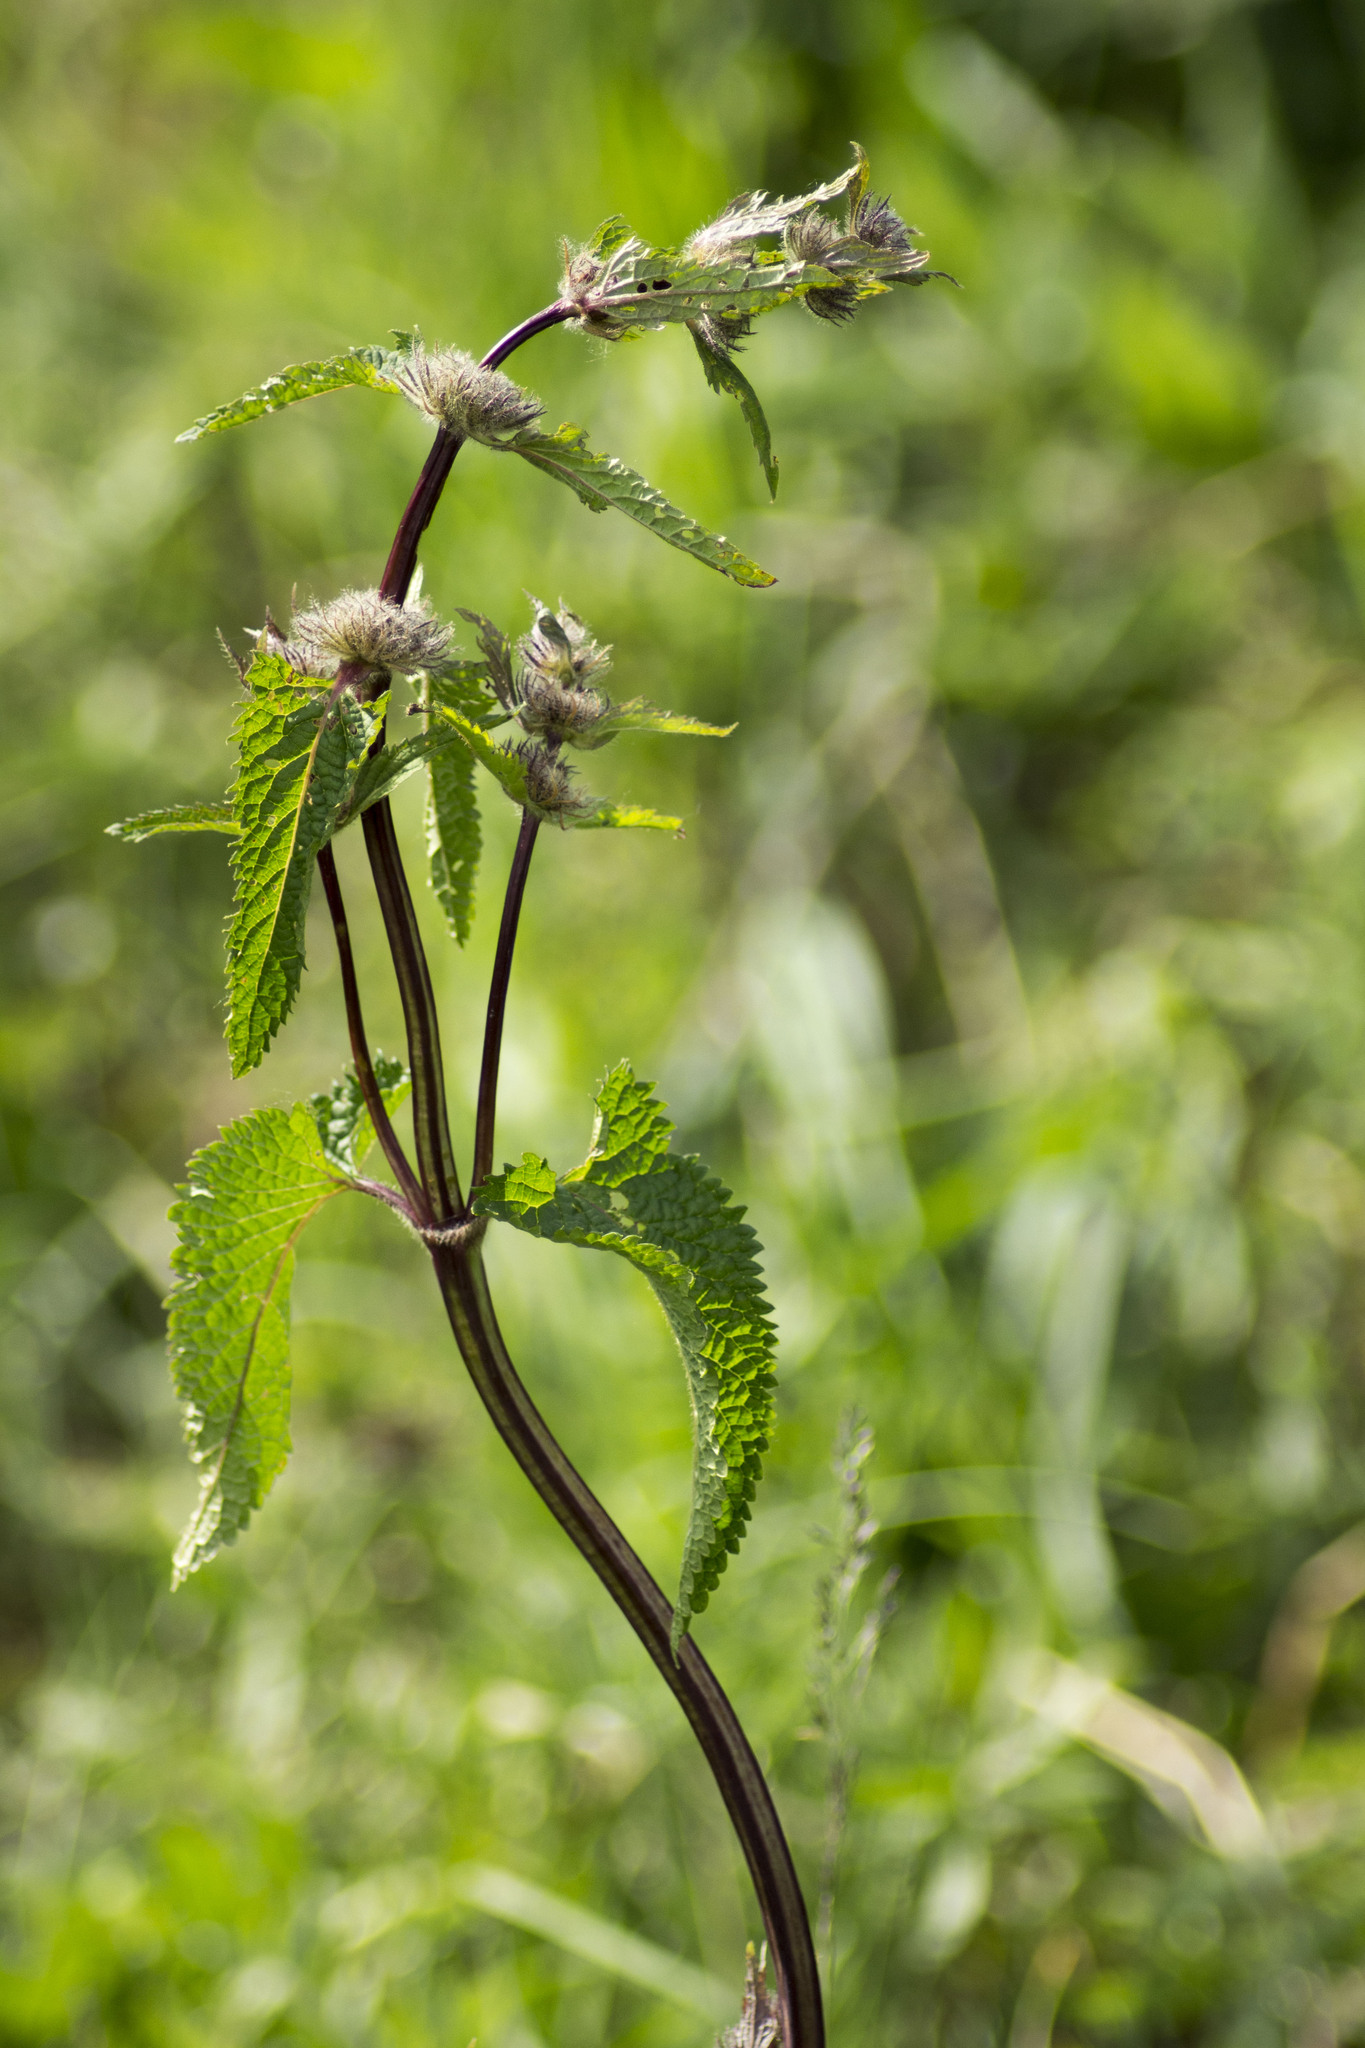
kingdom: Plantae
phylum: Tracheophyta
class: Magnoliopsida
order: Lamiales
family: Lamiaceae
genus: Phlomoides
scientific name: Phlomoides tuberosa
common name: Tuberous jerusalem sage
